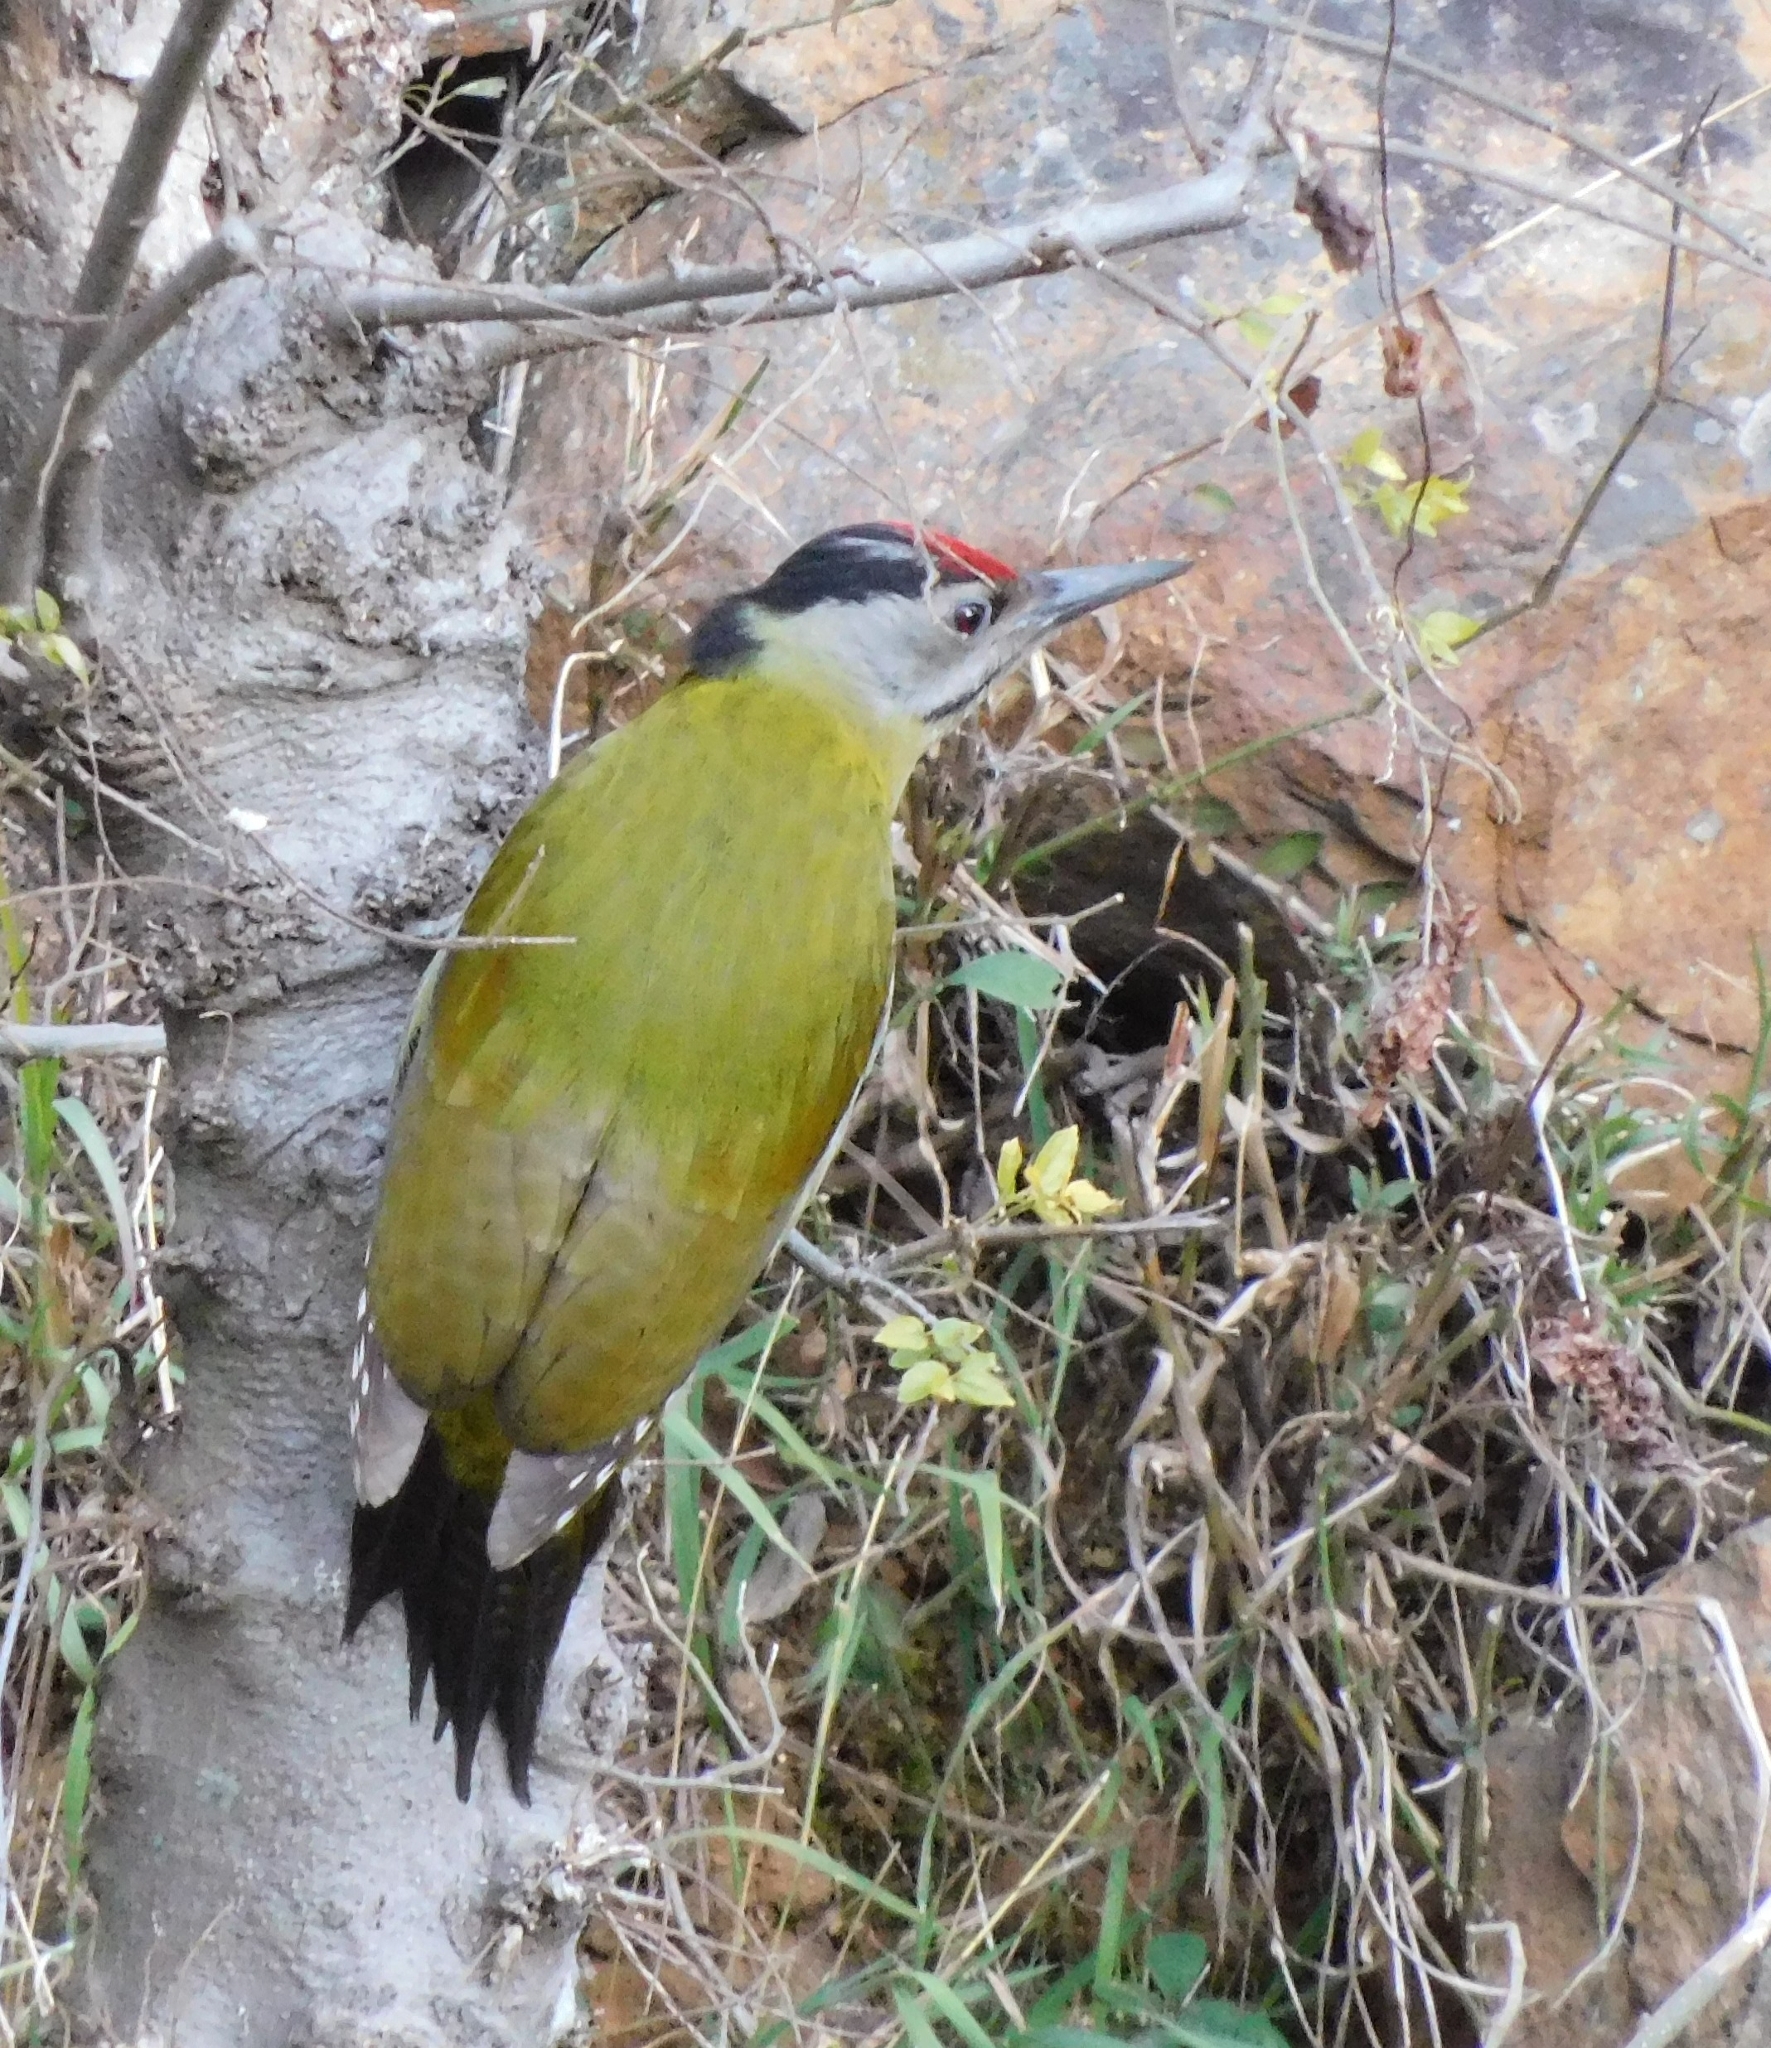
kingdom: Animalia
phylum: Chordata
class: Aves
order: Piciformes
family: Picidae
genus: Picus
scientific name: Picus canus
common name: Grey-headed woodpecker
